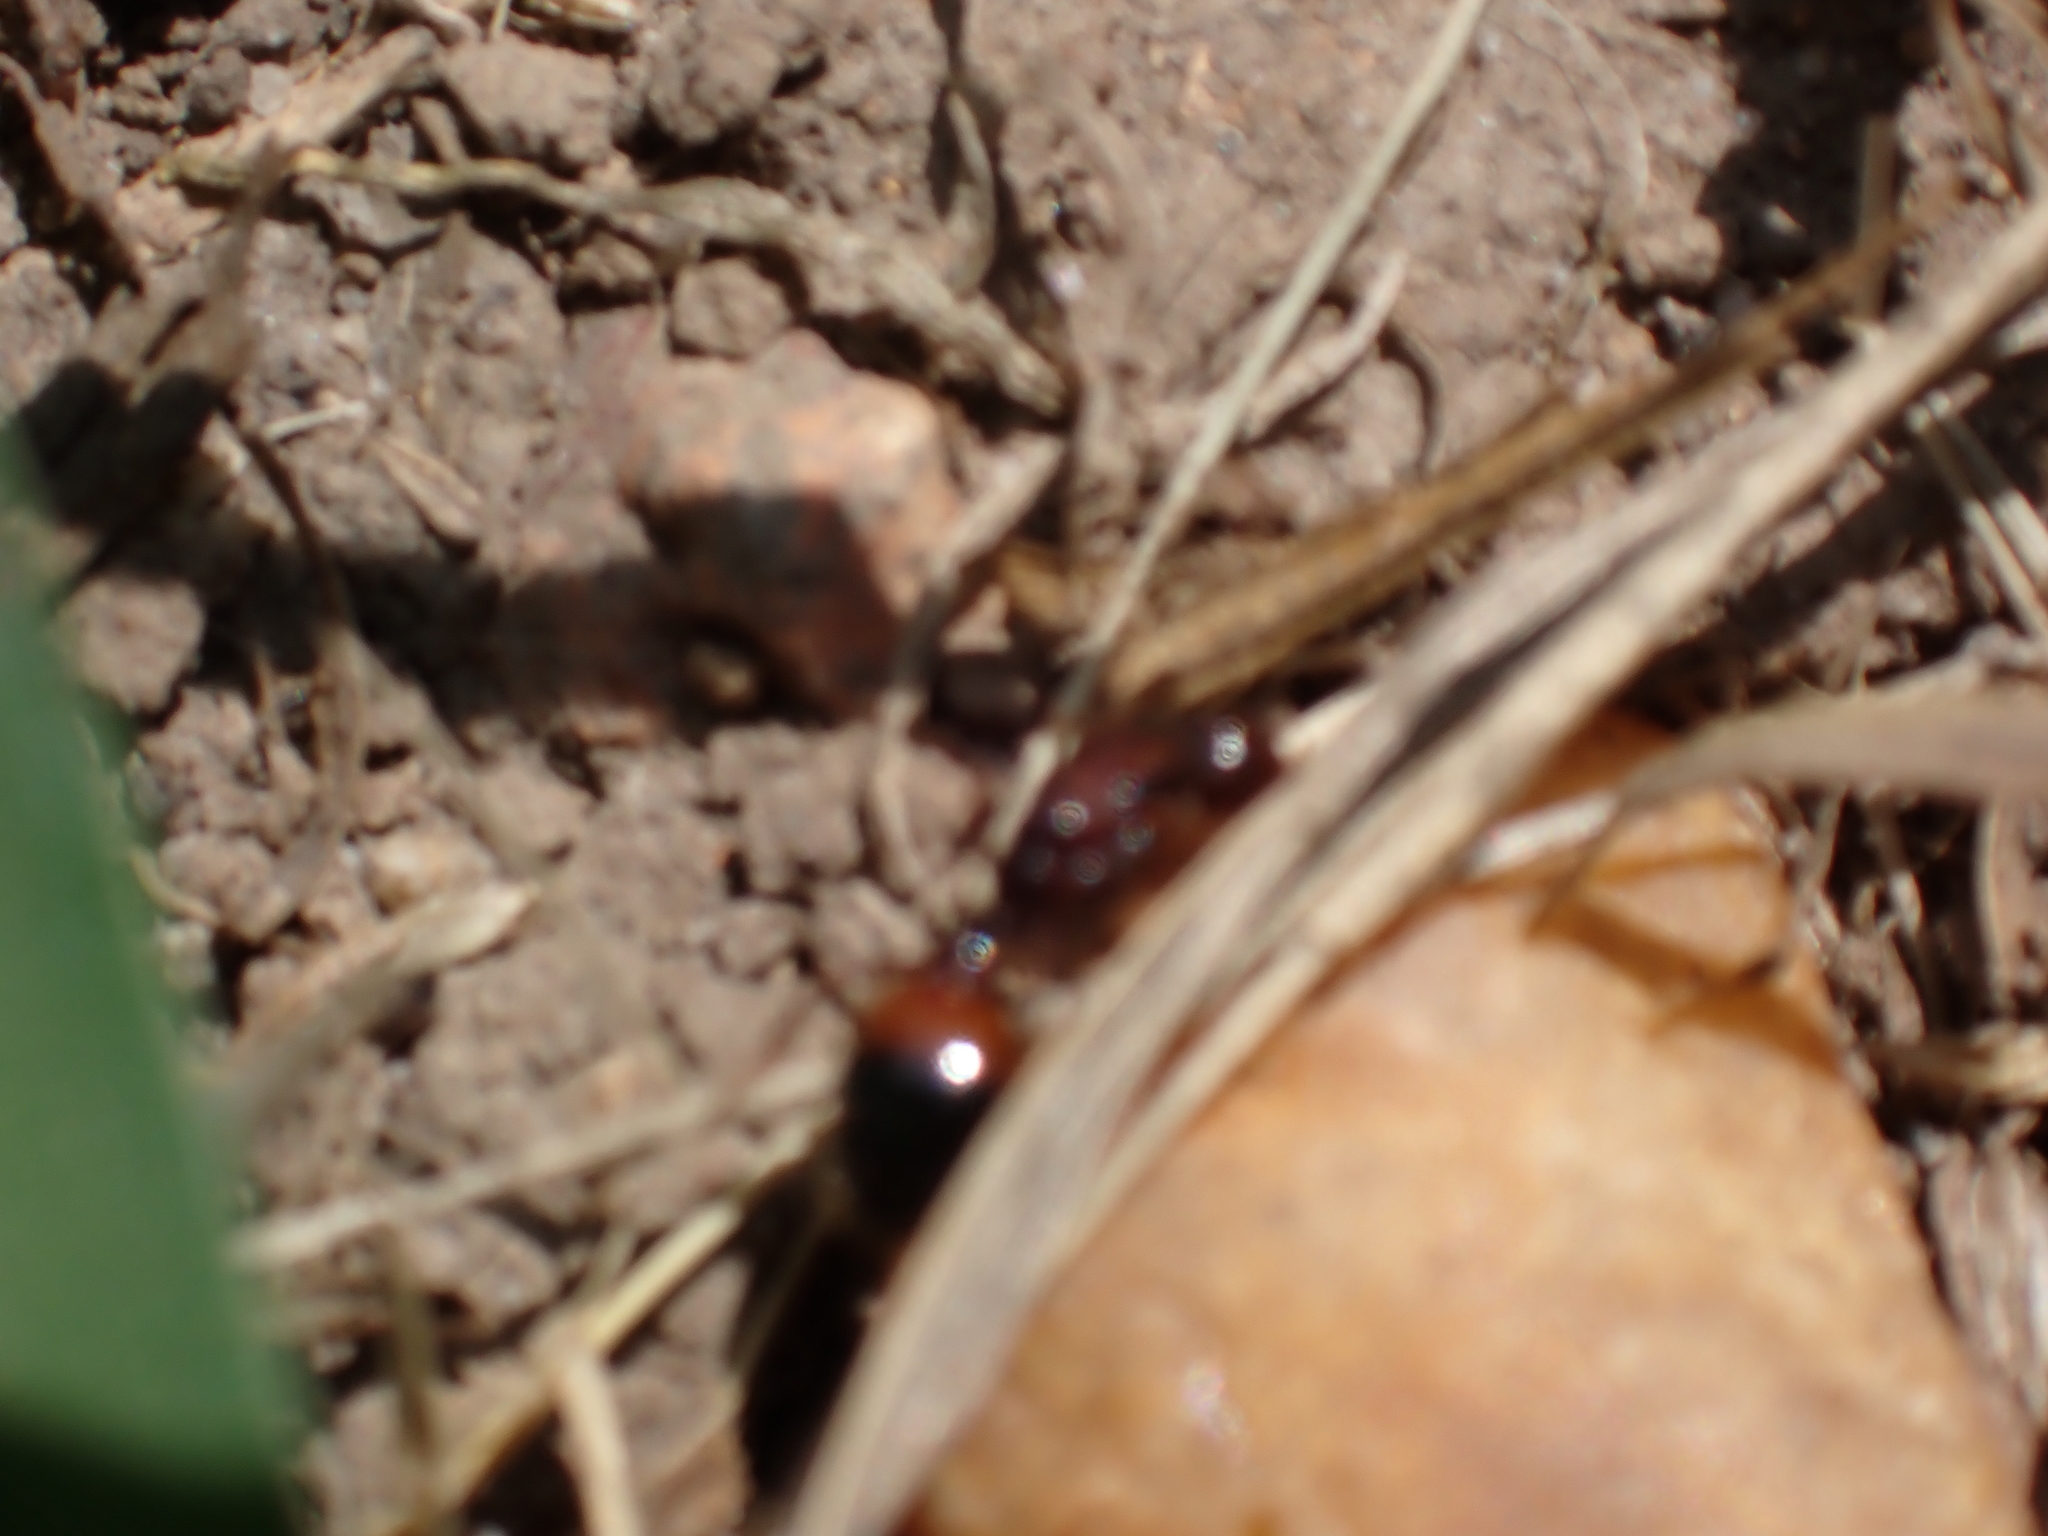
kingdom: Animalia
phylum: Arthropoda
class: Insecta
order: Hymenoptera
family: Formicidae
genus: Solenopsis
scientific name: Solenopsis
